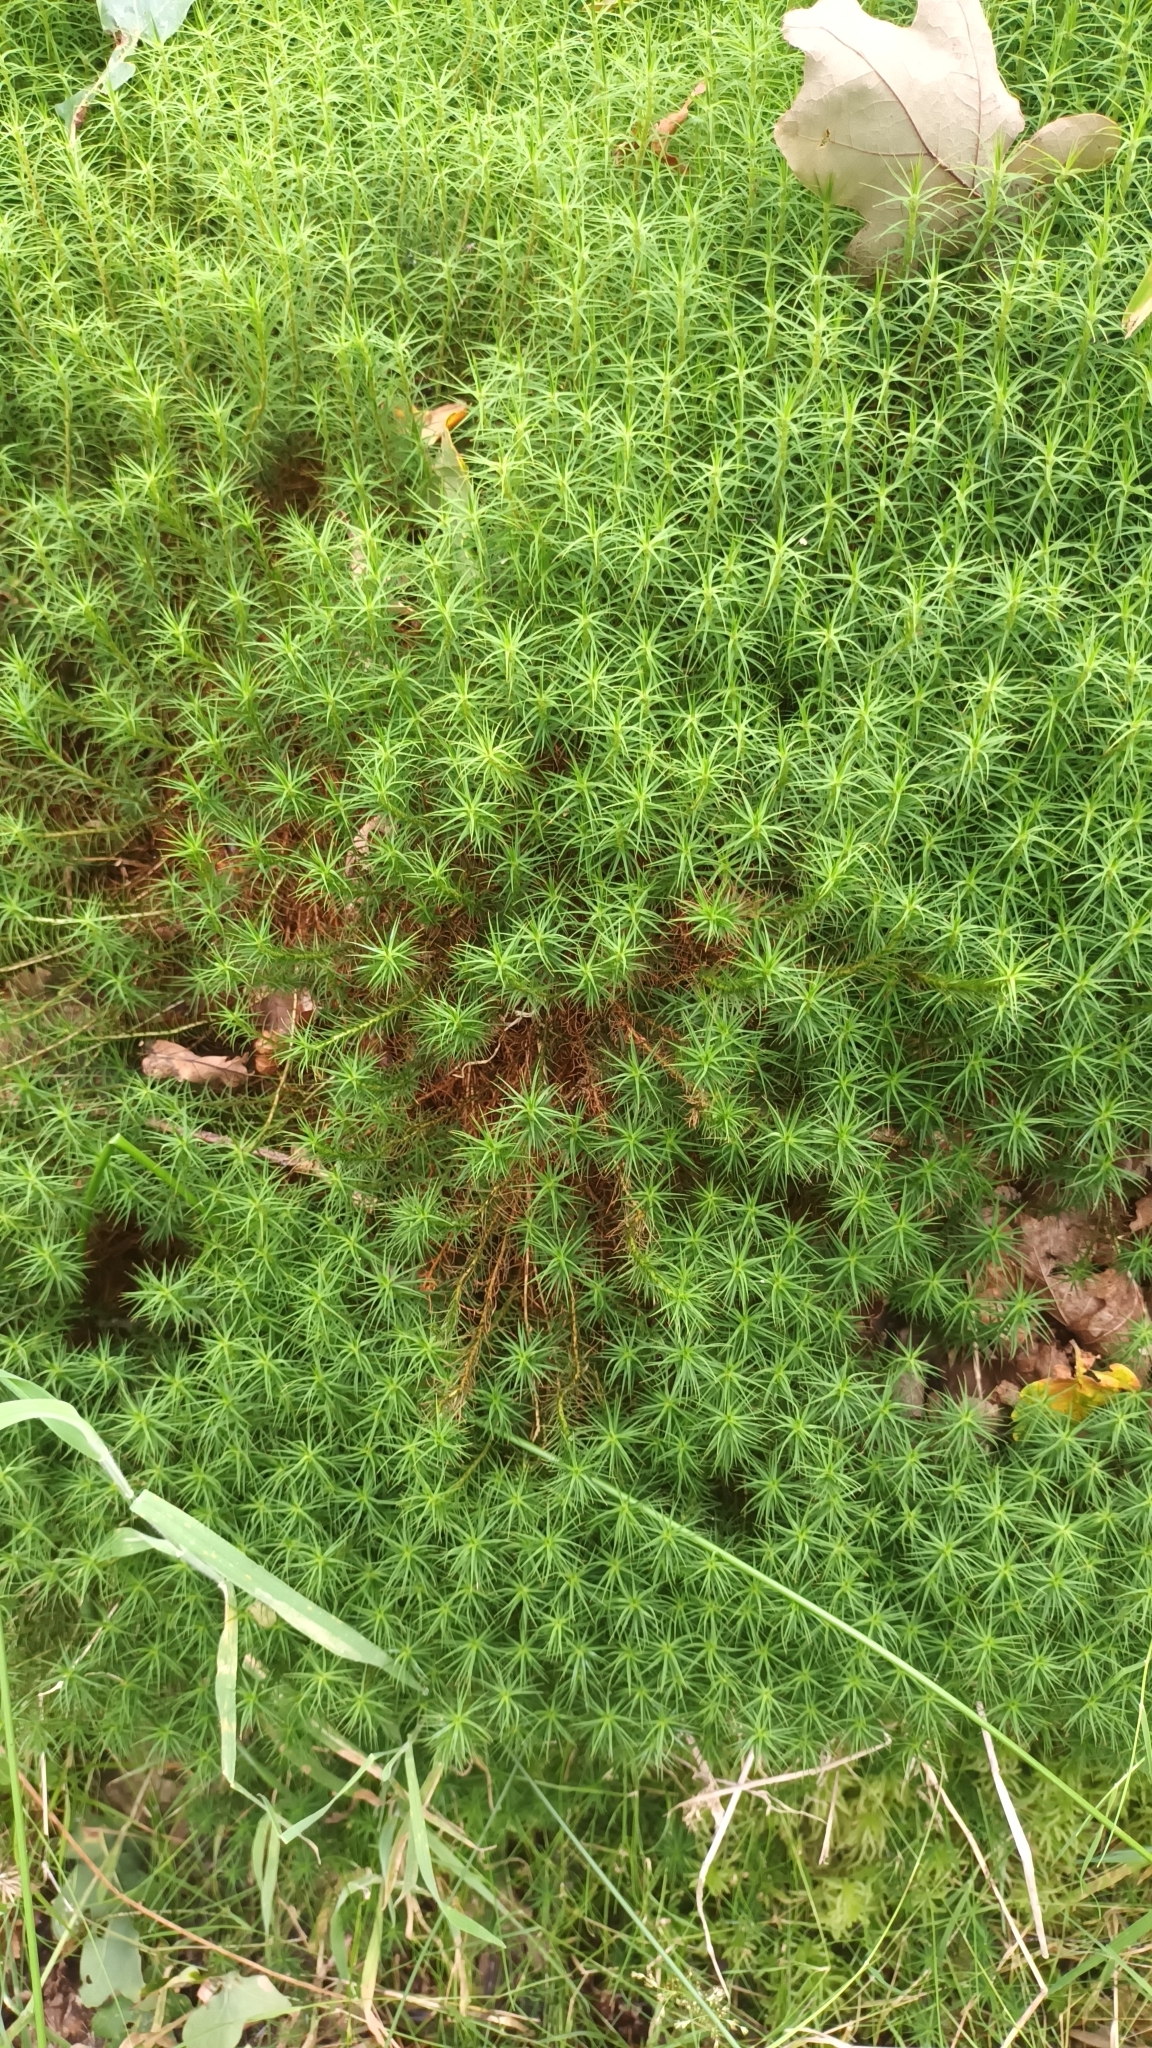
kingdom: Plantae
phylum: Bryophyta
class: Polytrichopsida
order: Polytrichales
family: Polytrichaceae
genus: Polytrichum
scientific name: Polytrichum commune
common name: Common haircap
